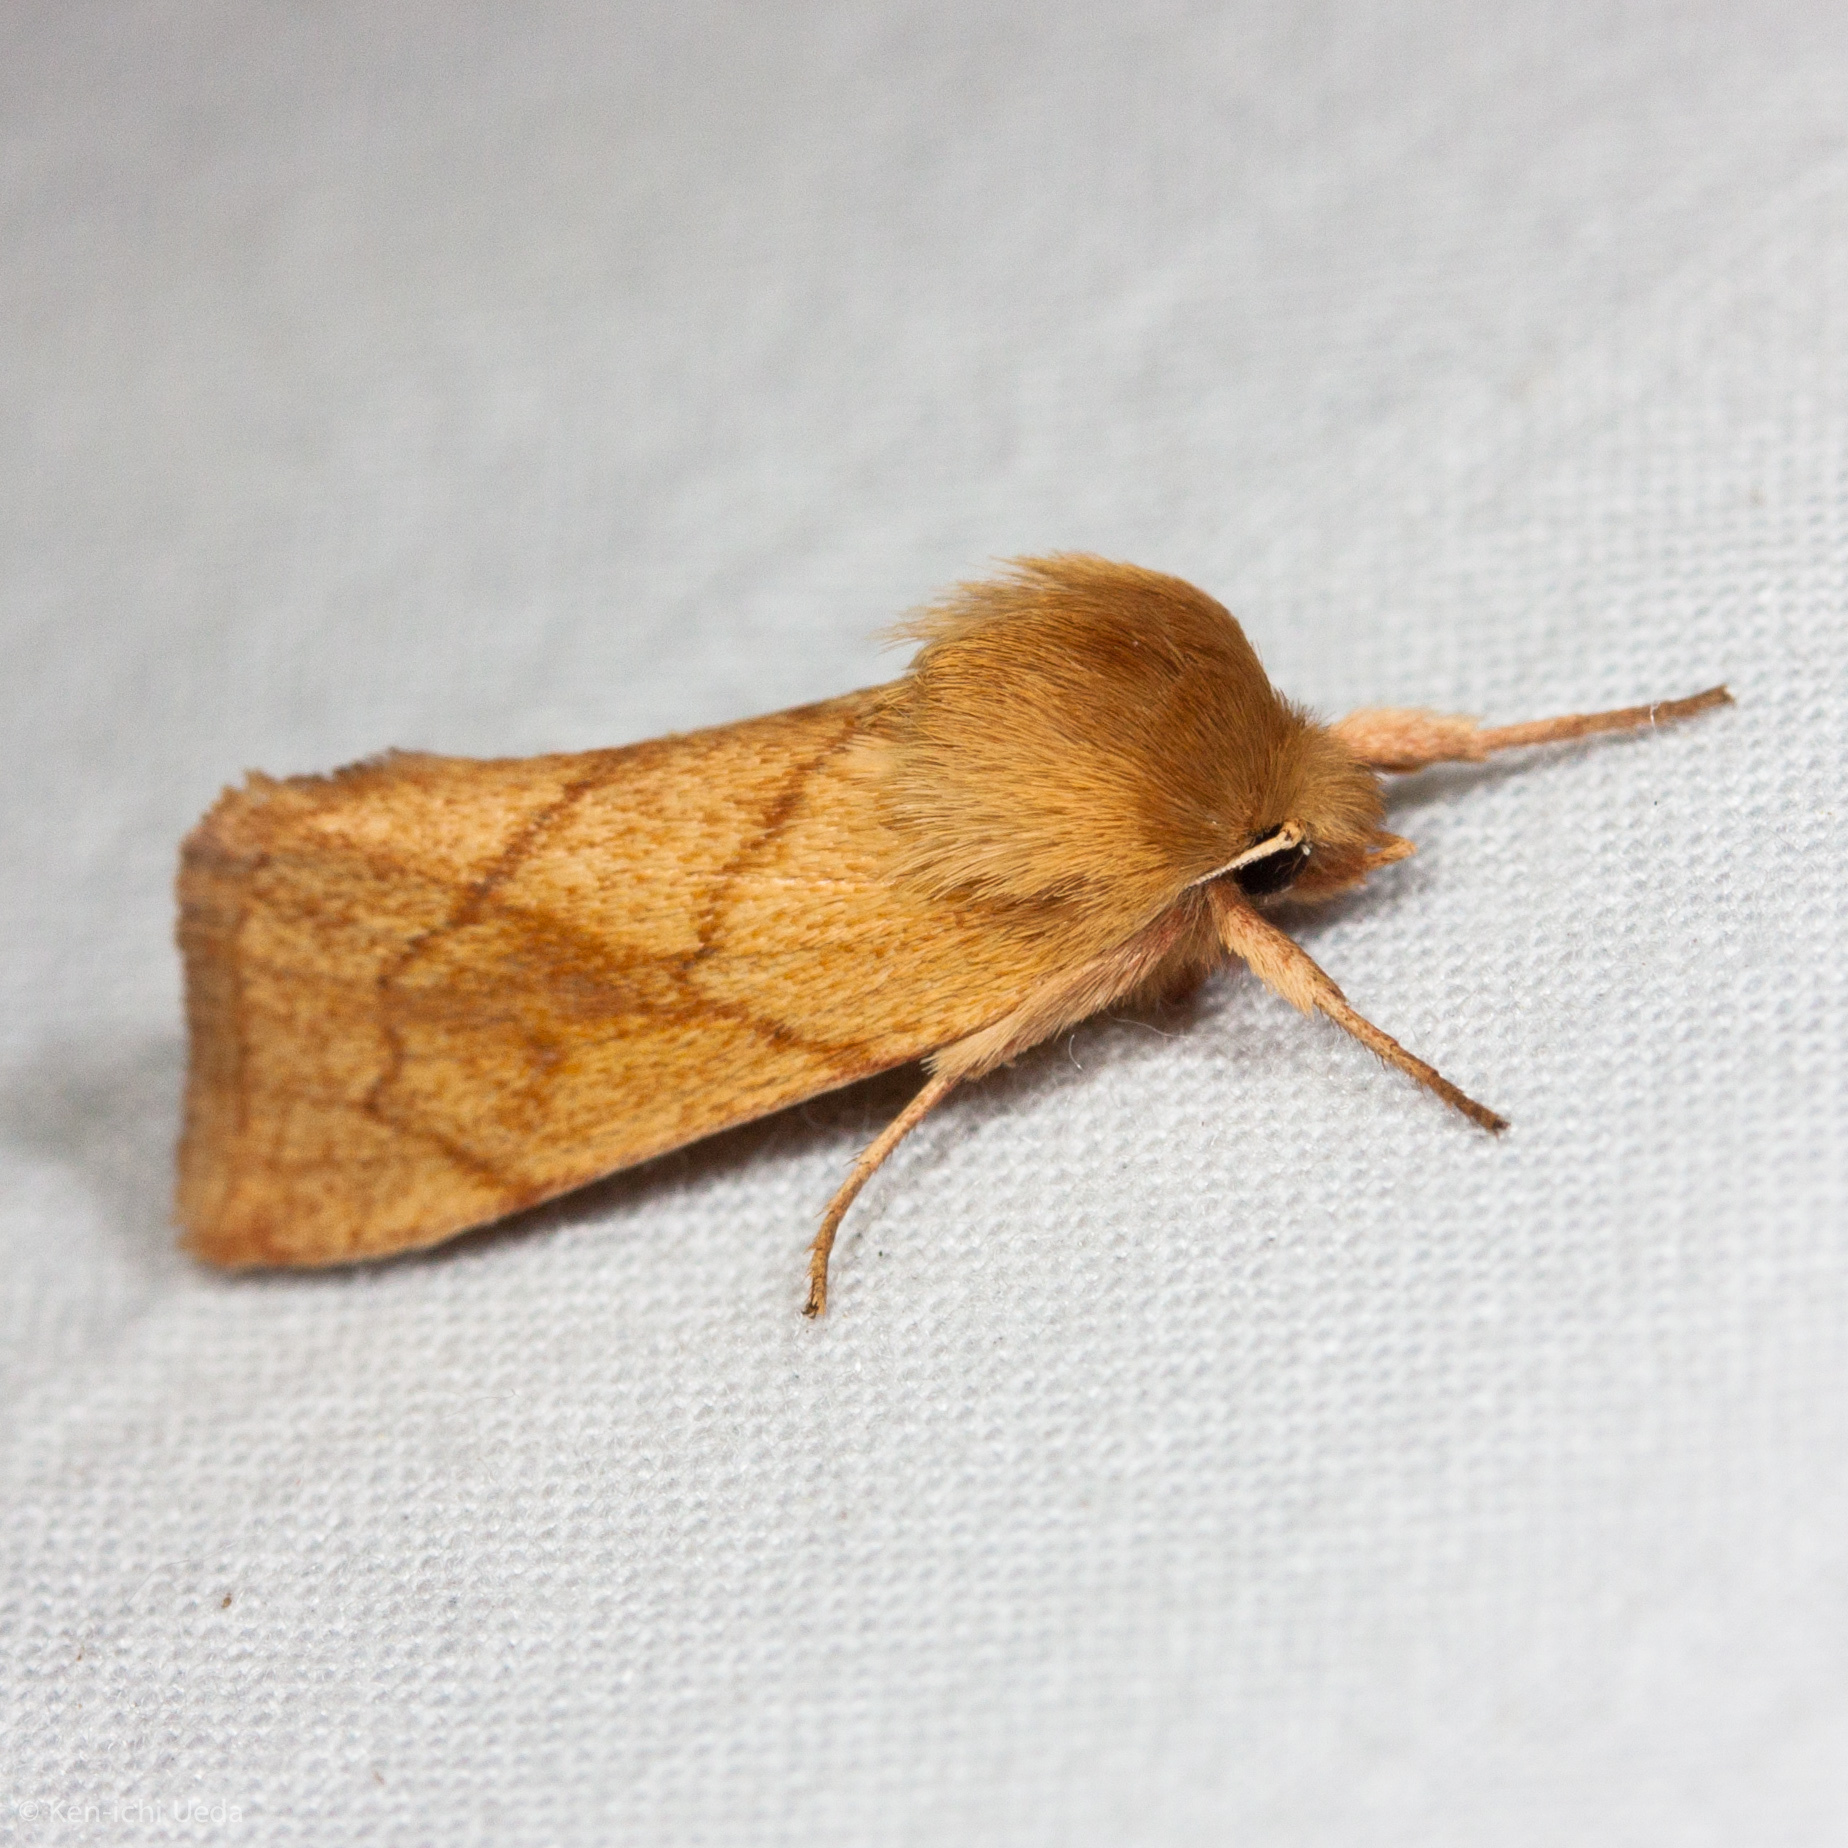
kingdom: Animalia
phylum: Arthropoda
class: Insecta
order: Lepidoptera
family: Noctuidae
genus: Zosteropoda
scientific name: Zosteropoda hirtipes
